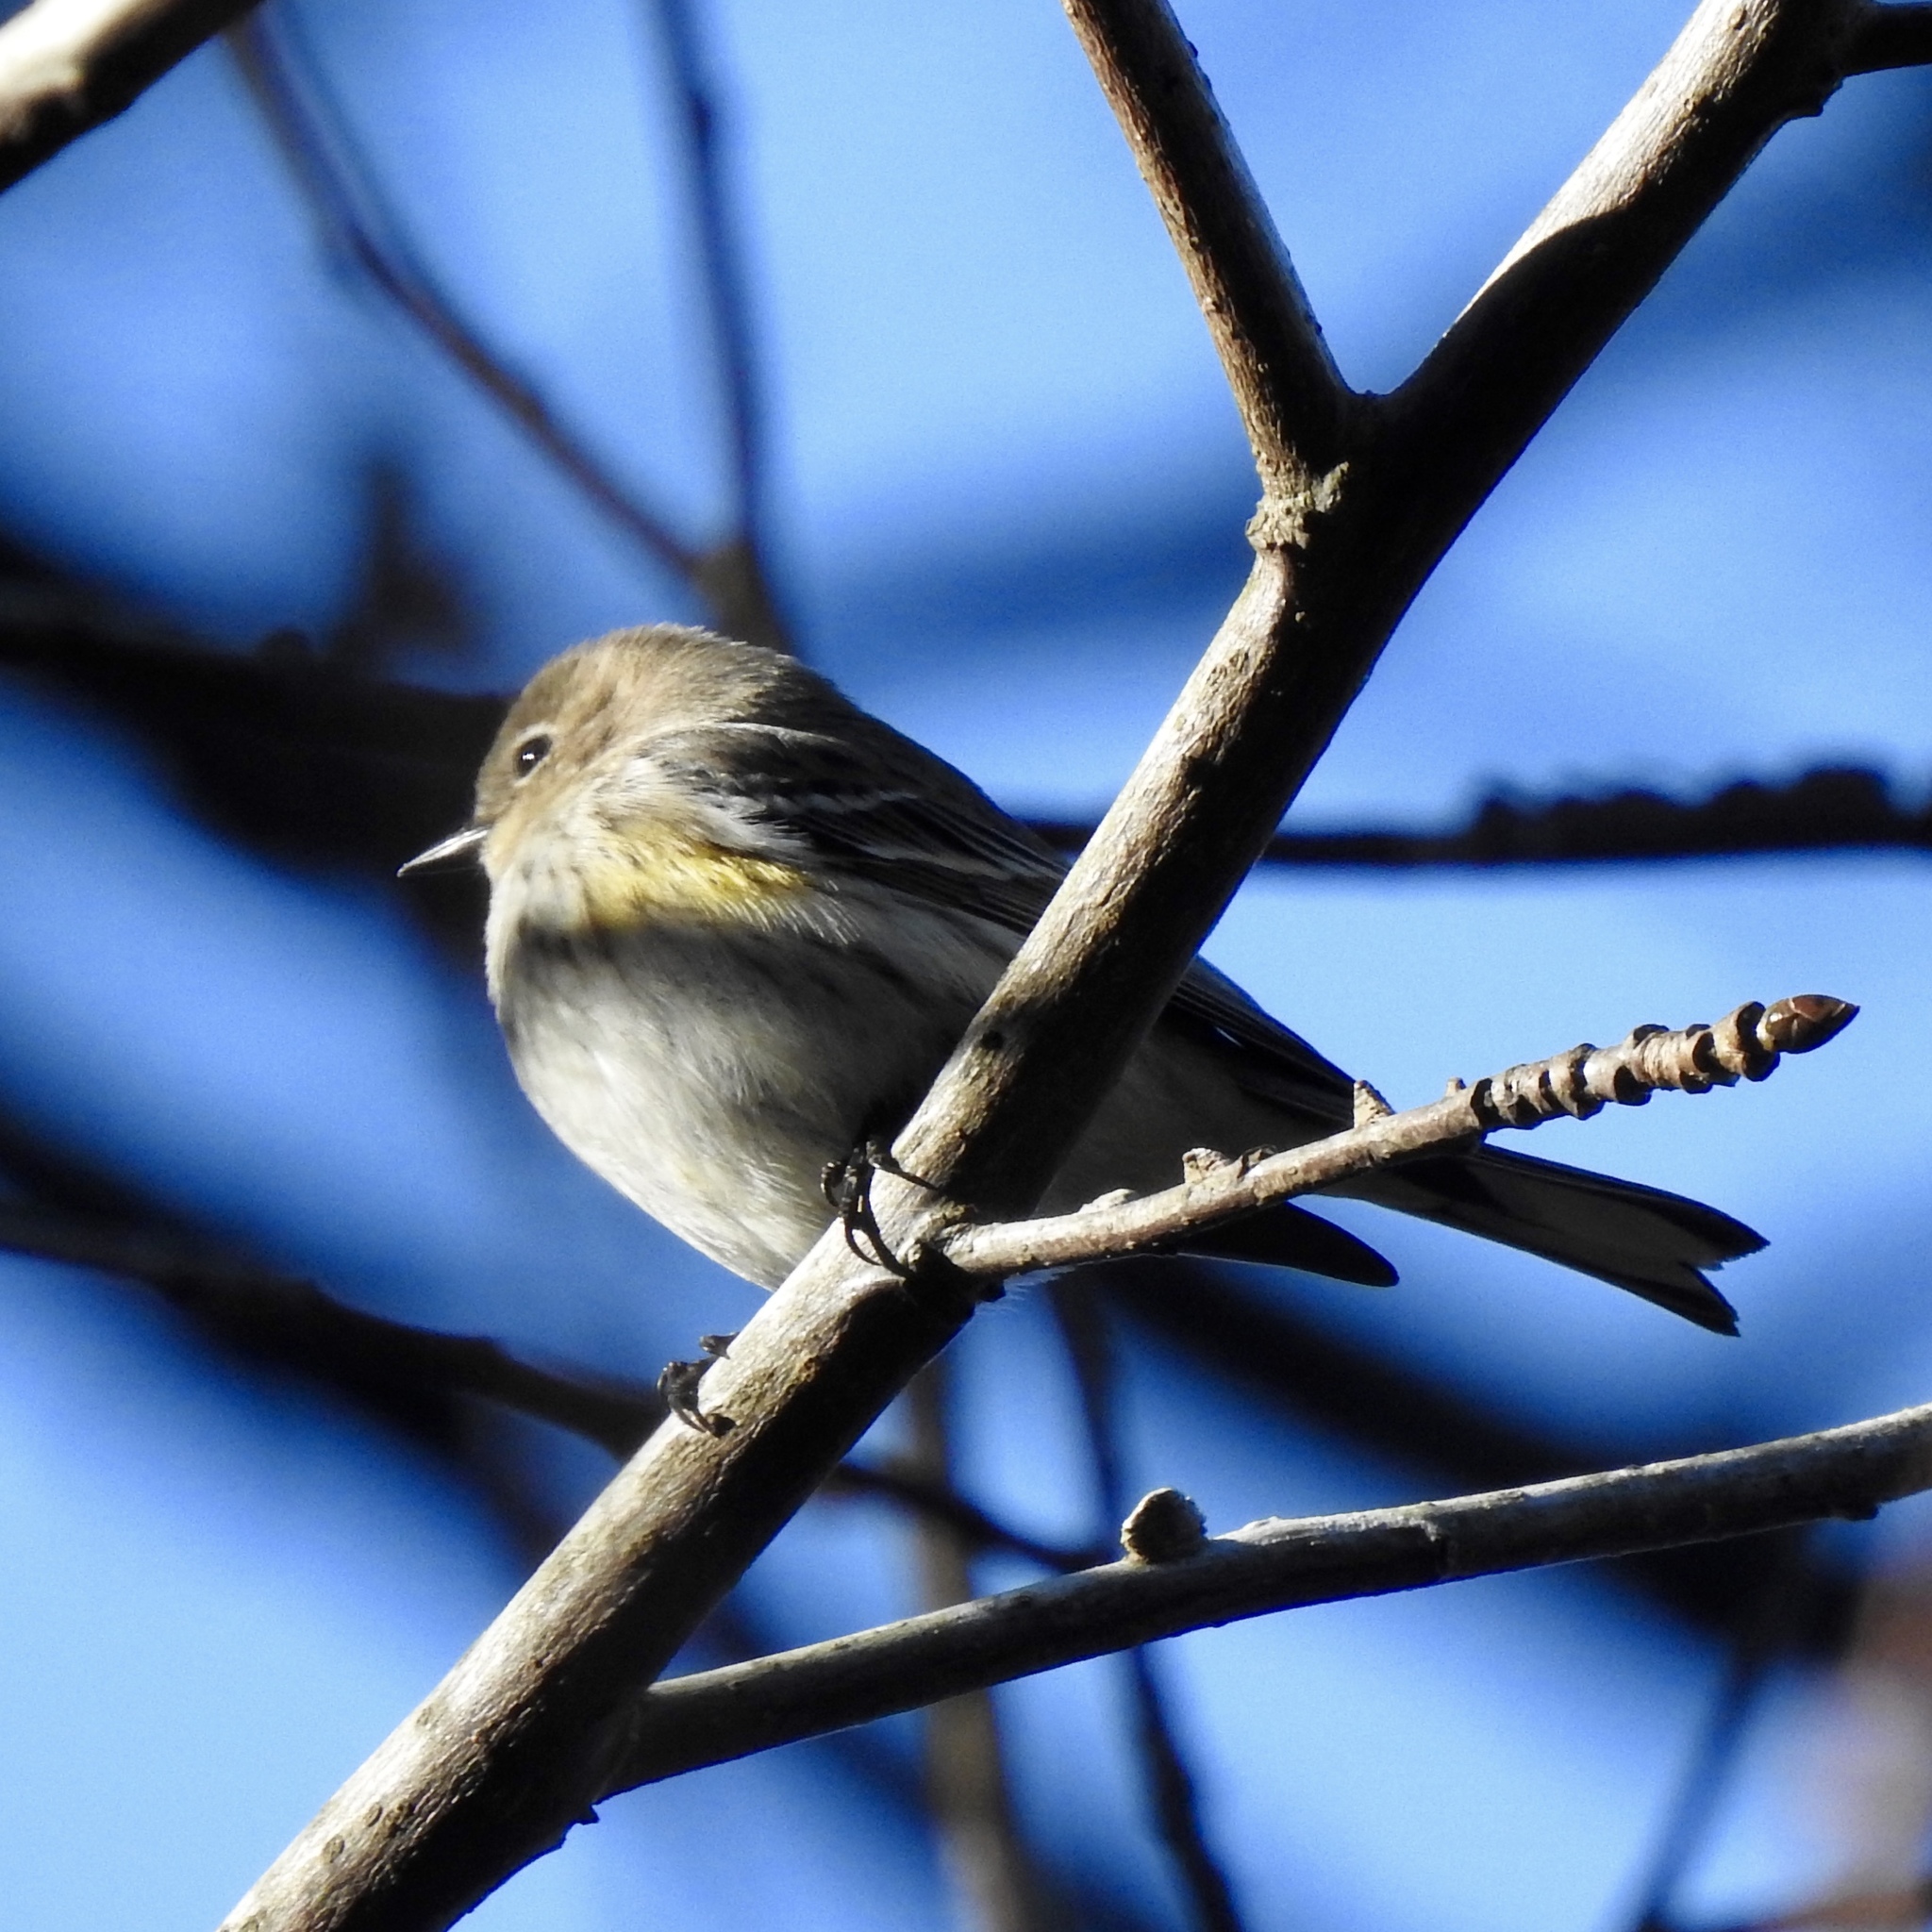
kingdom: Animalia
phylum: Chordata
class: Aves
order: Passeriformes
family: Parulidae
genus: Setophaga
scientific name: Setophaga coronata
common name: Myrtle warbler
